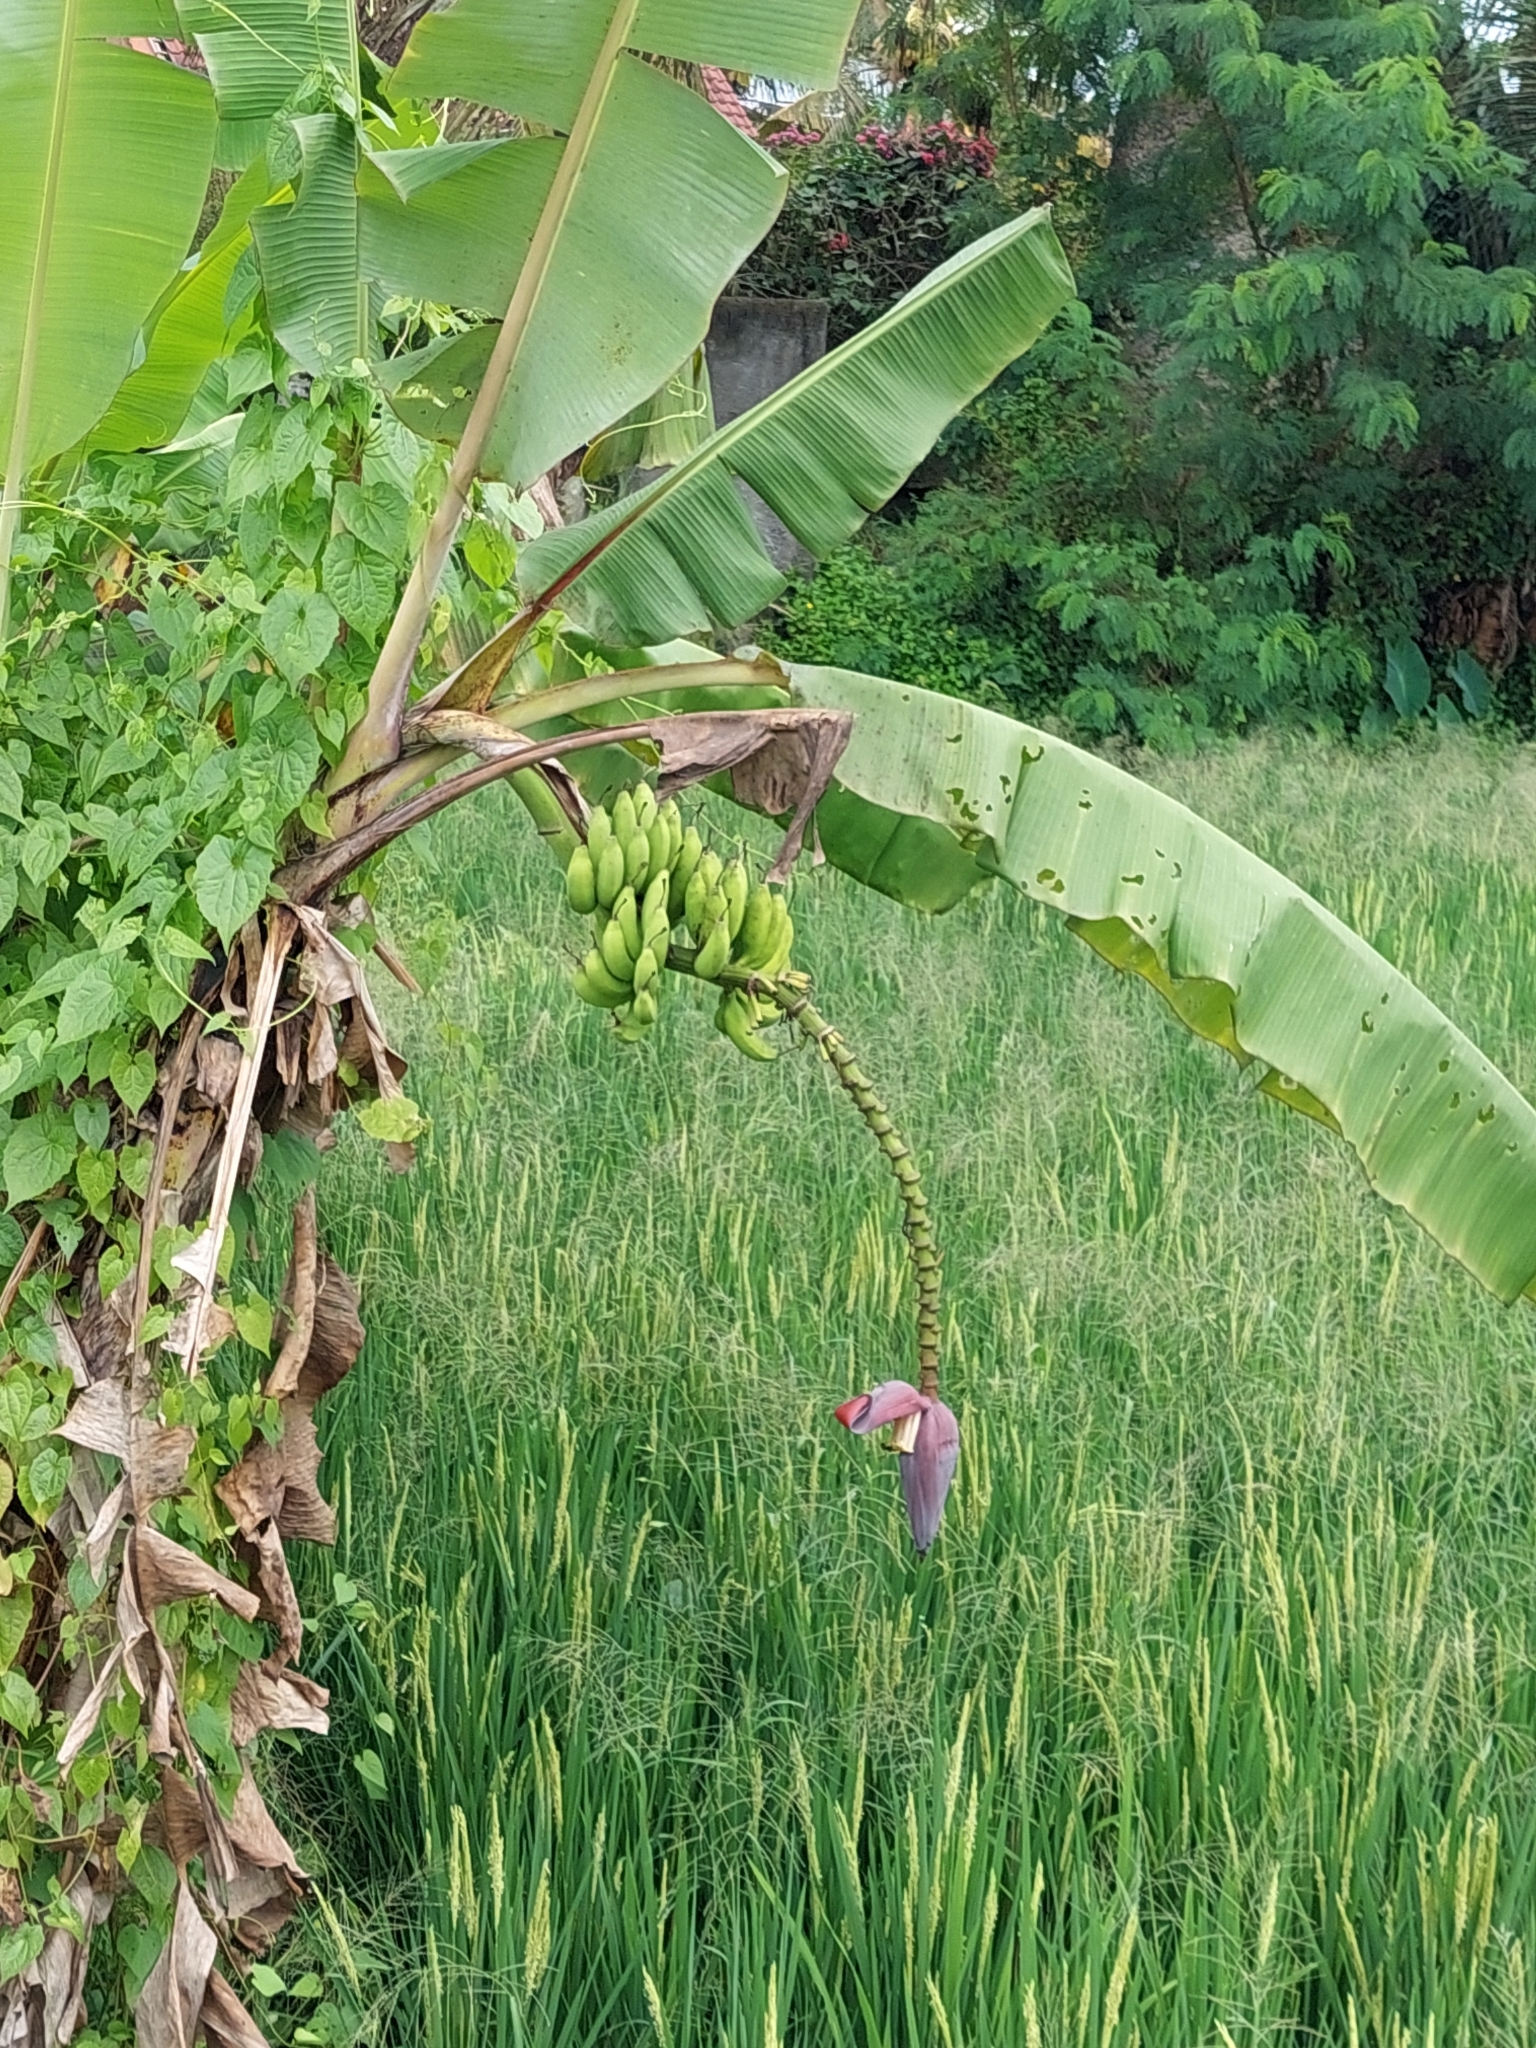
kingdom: Plantae
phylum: Tracheophyta
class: Liliopsida
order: Zingiberales
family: Musaceae
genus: Musa
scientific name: Musa acuminata
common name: Edible banana
